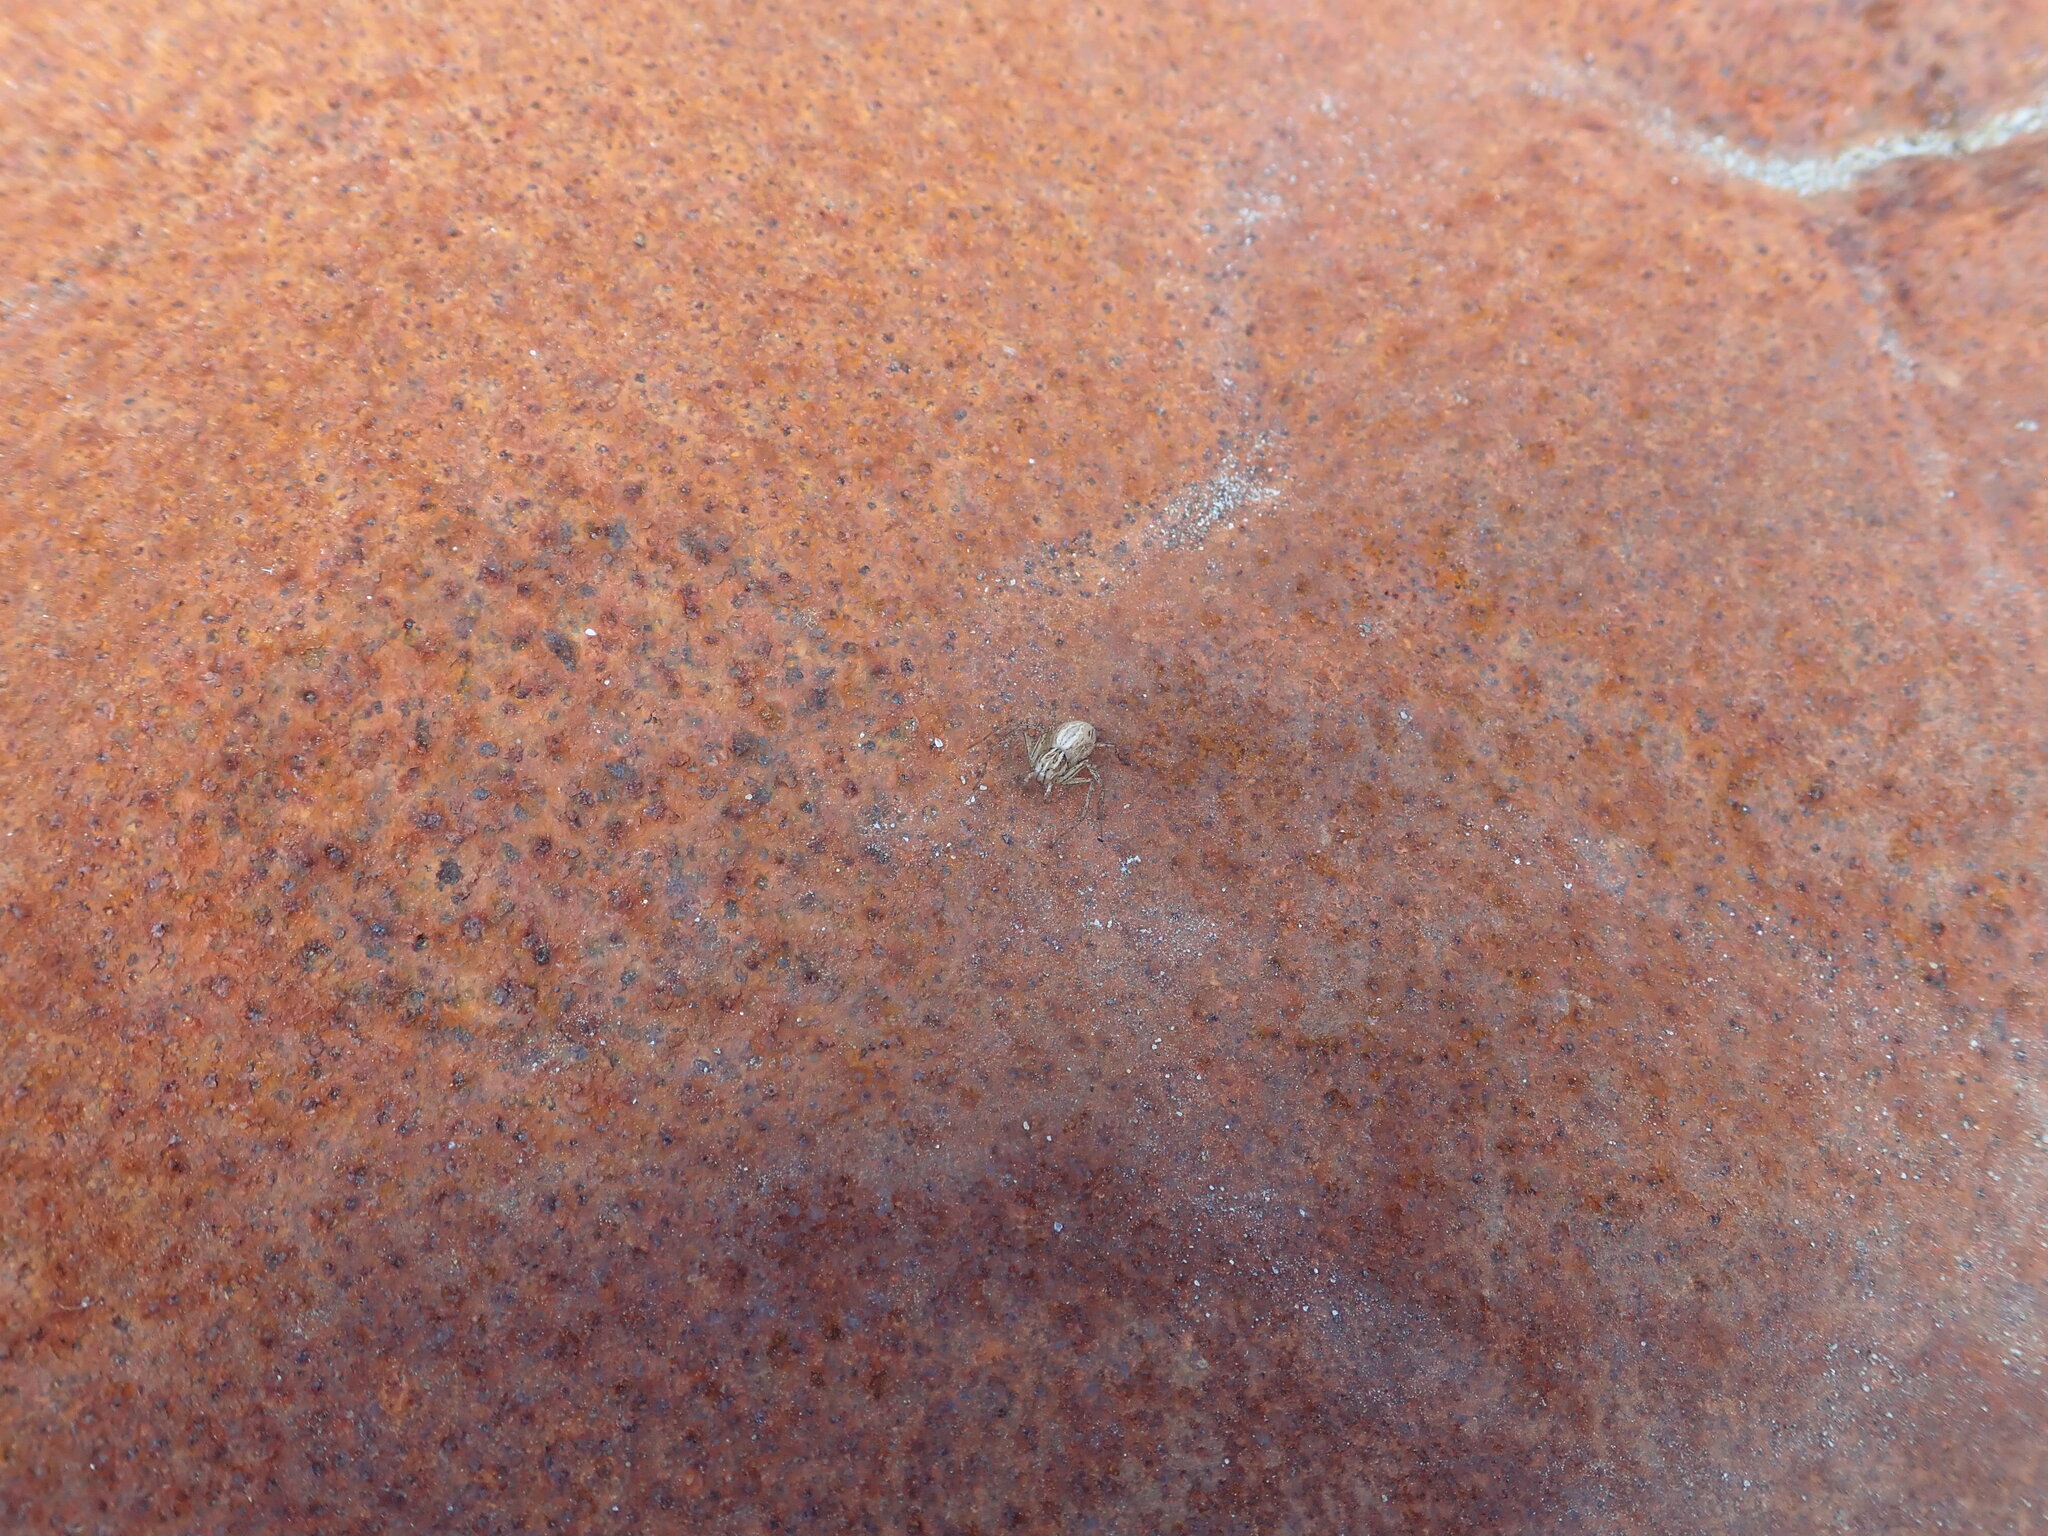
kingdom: Animalia
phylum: Arthropoda
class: Arachnida
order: Araneae
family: Oxyopidae
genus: Oxyopes
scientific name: Oxyopes gracilipes
